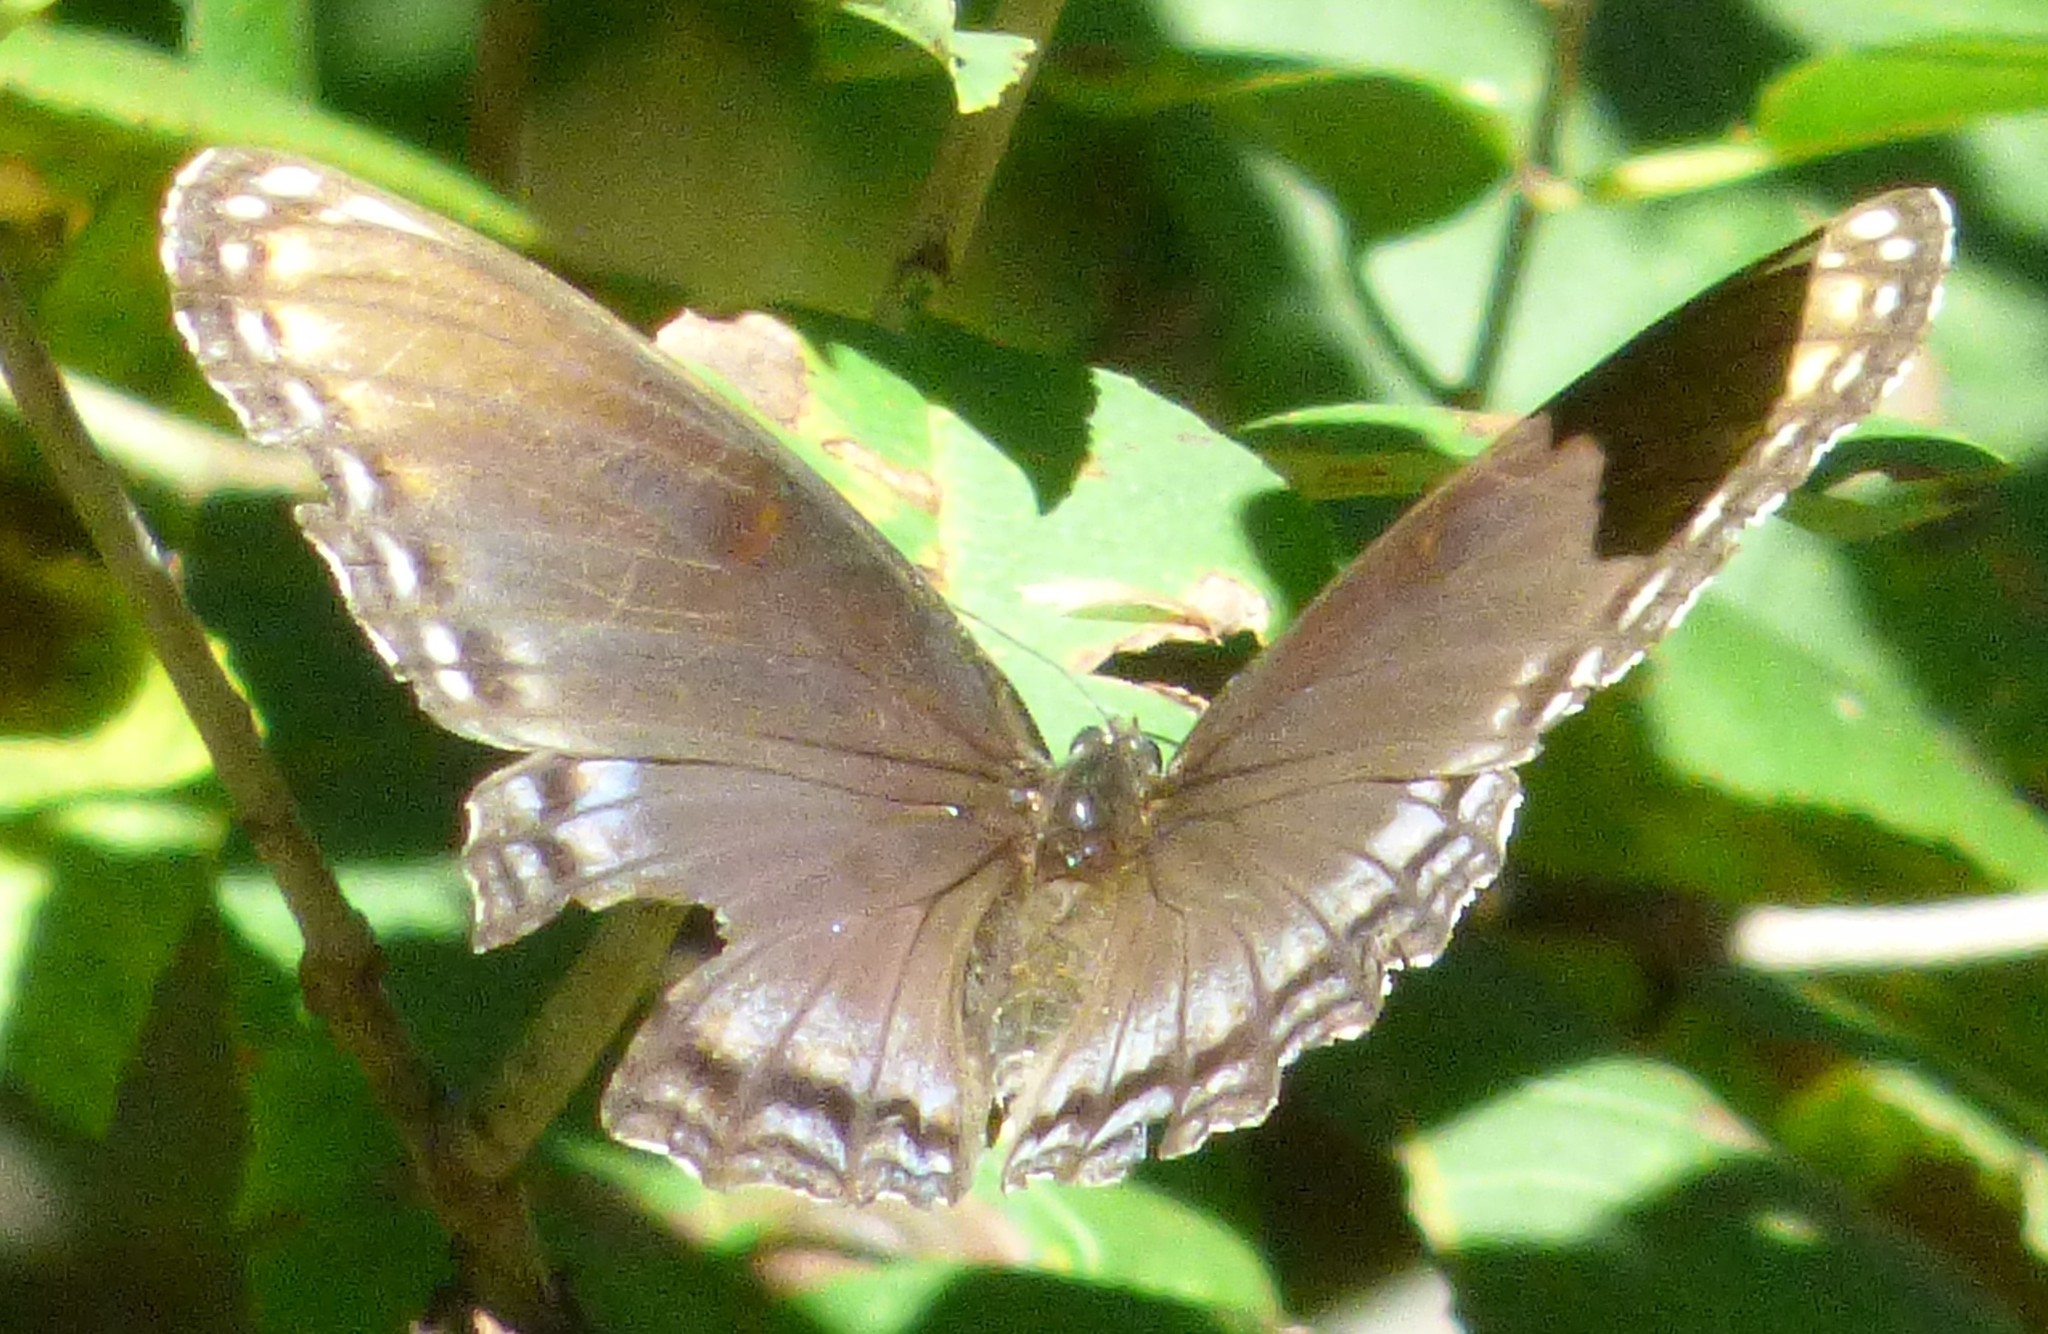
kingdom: Animalia
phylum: Arthropoda
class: Insecta
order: Lepidoptera
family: Nymphalidae
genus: Limenitis
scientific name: Limenitis astyanax
